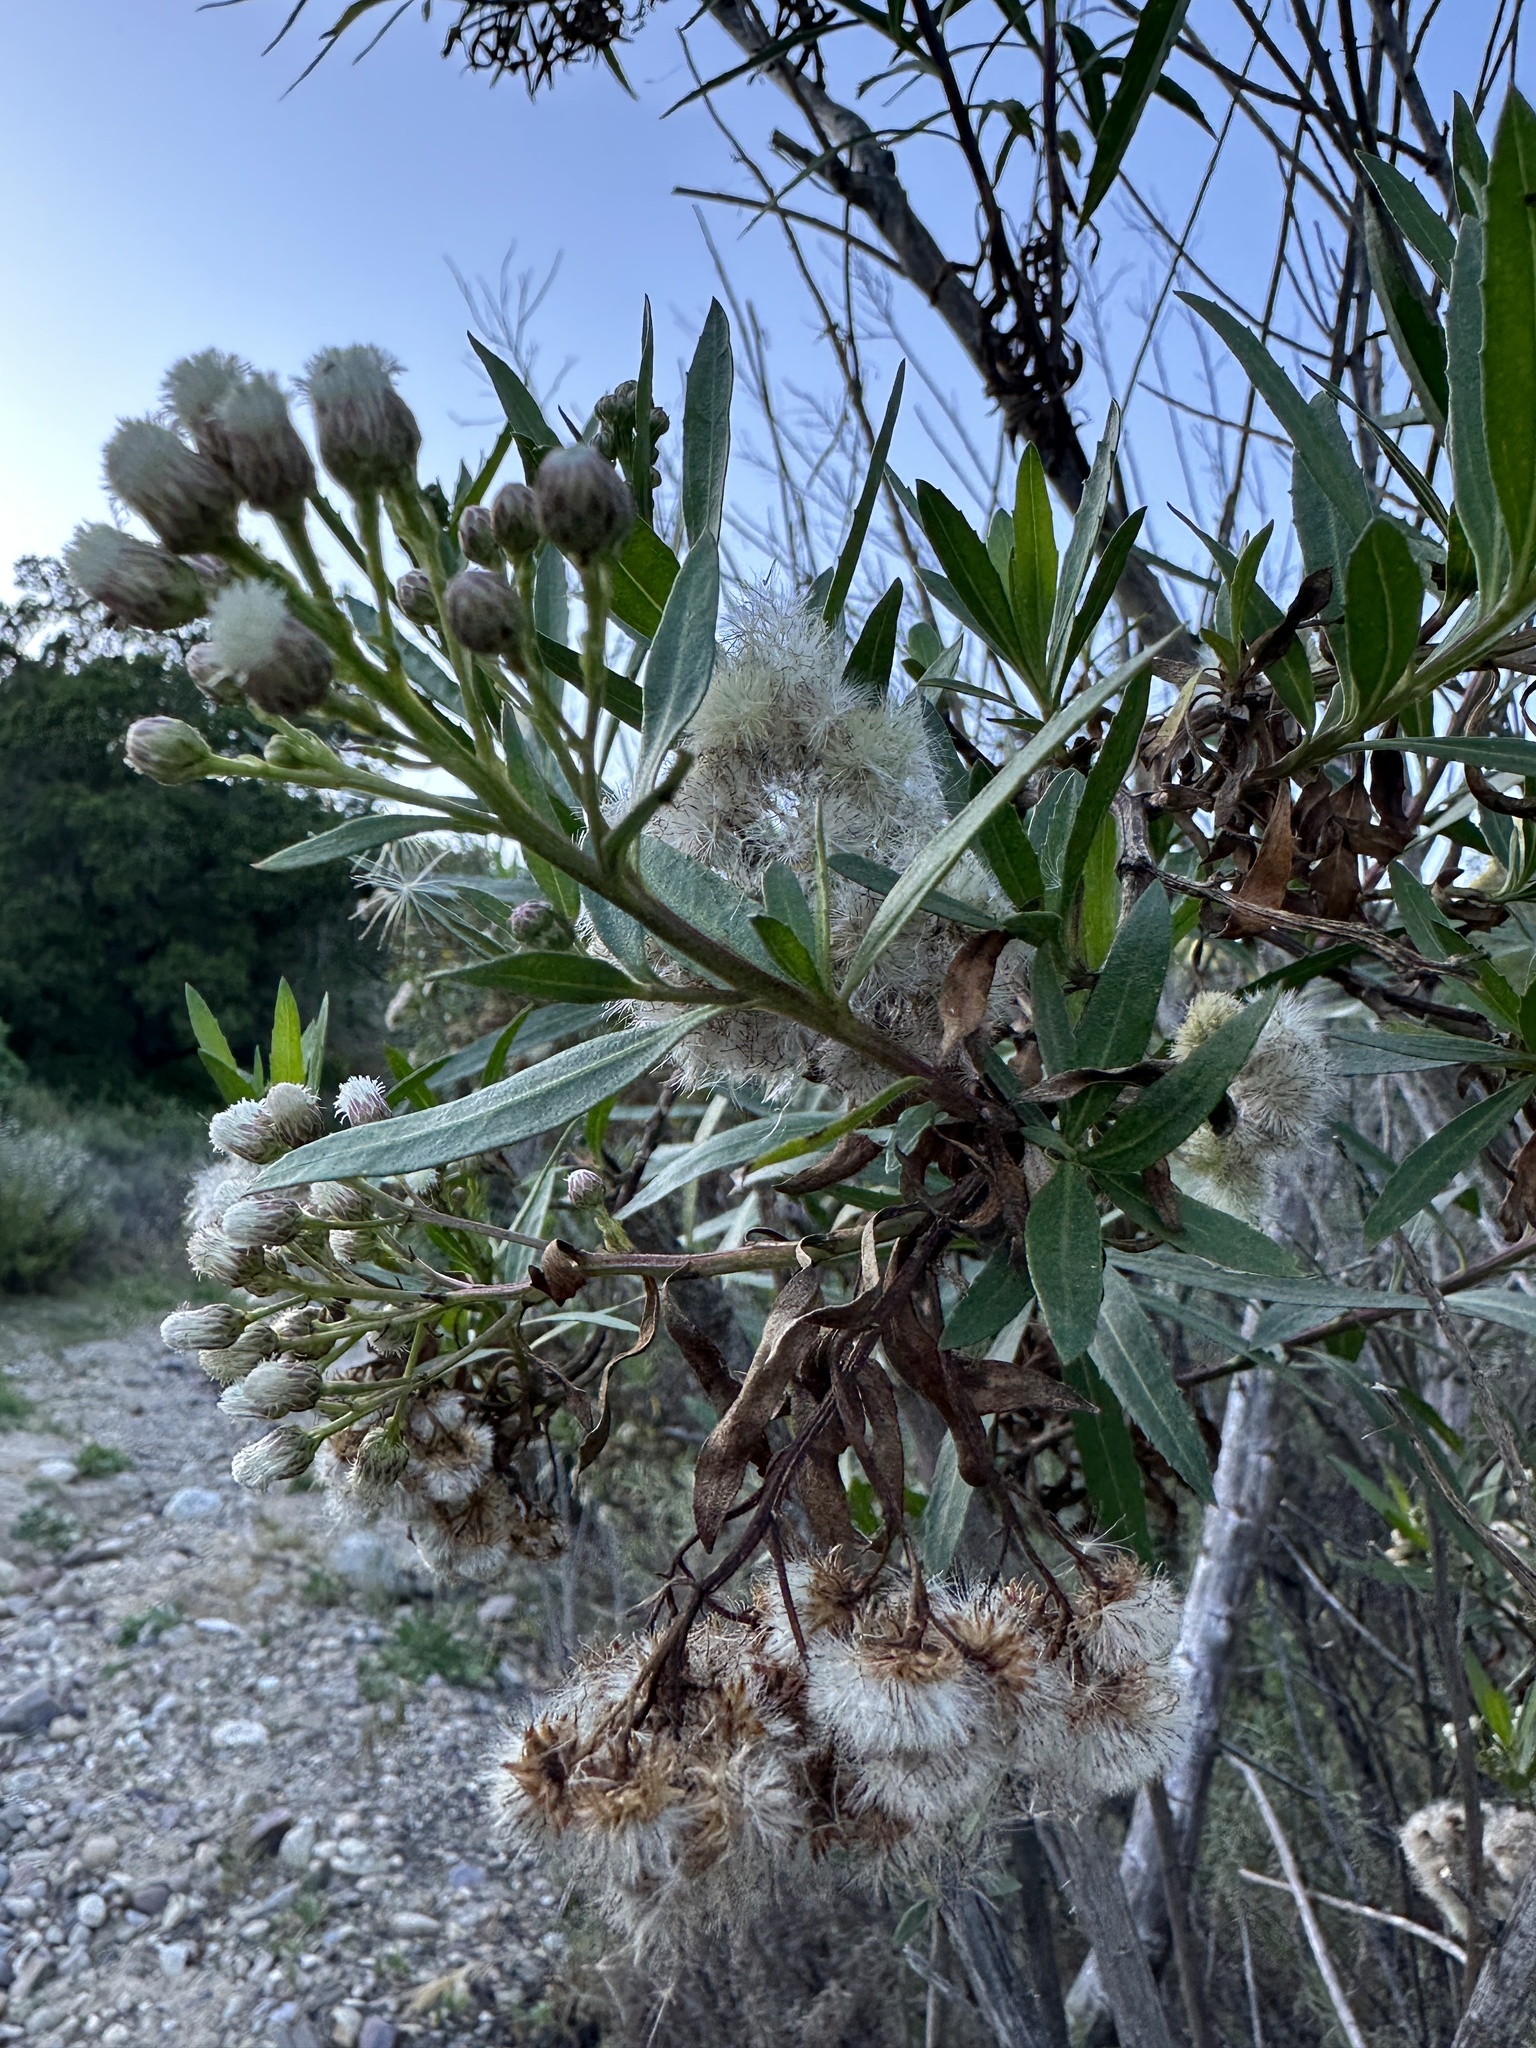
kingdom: Plantae
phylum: Tracheophyta
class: Magnoliopsida
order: Asterales
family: Asteraceae
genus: Baccharis
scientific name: Baccharis salicifolia
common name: Sticky baccharis
